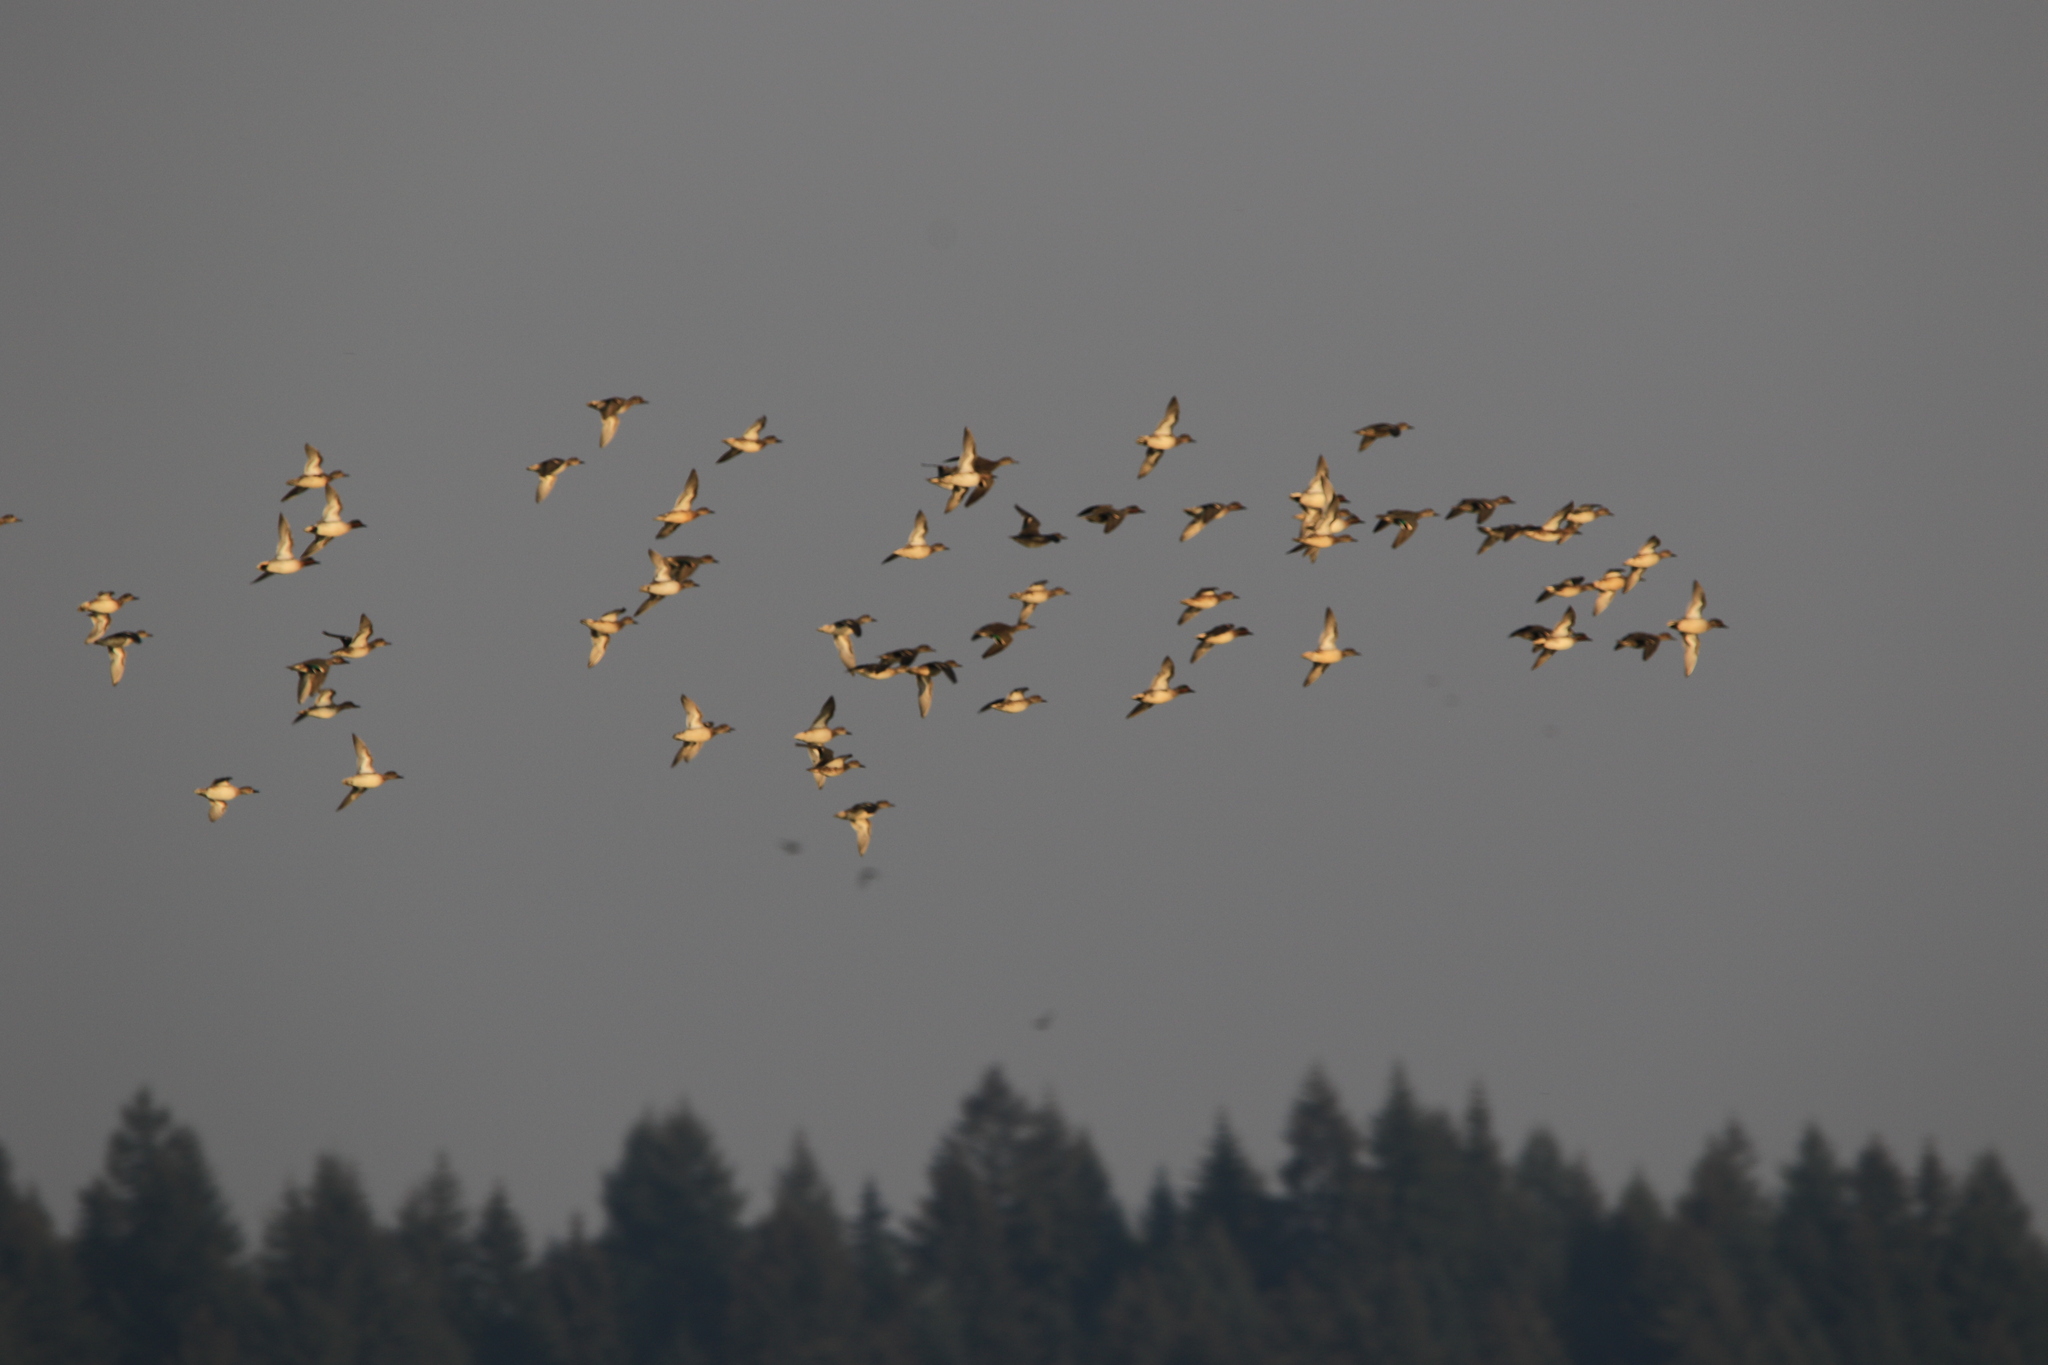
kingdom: Animalia
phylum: Chordata
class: Aves
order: Anseriformes
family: Anatidae
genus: Anas
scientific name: Anas crecca
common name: Eurasian teal
